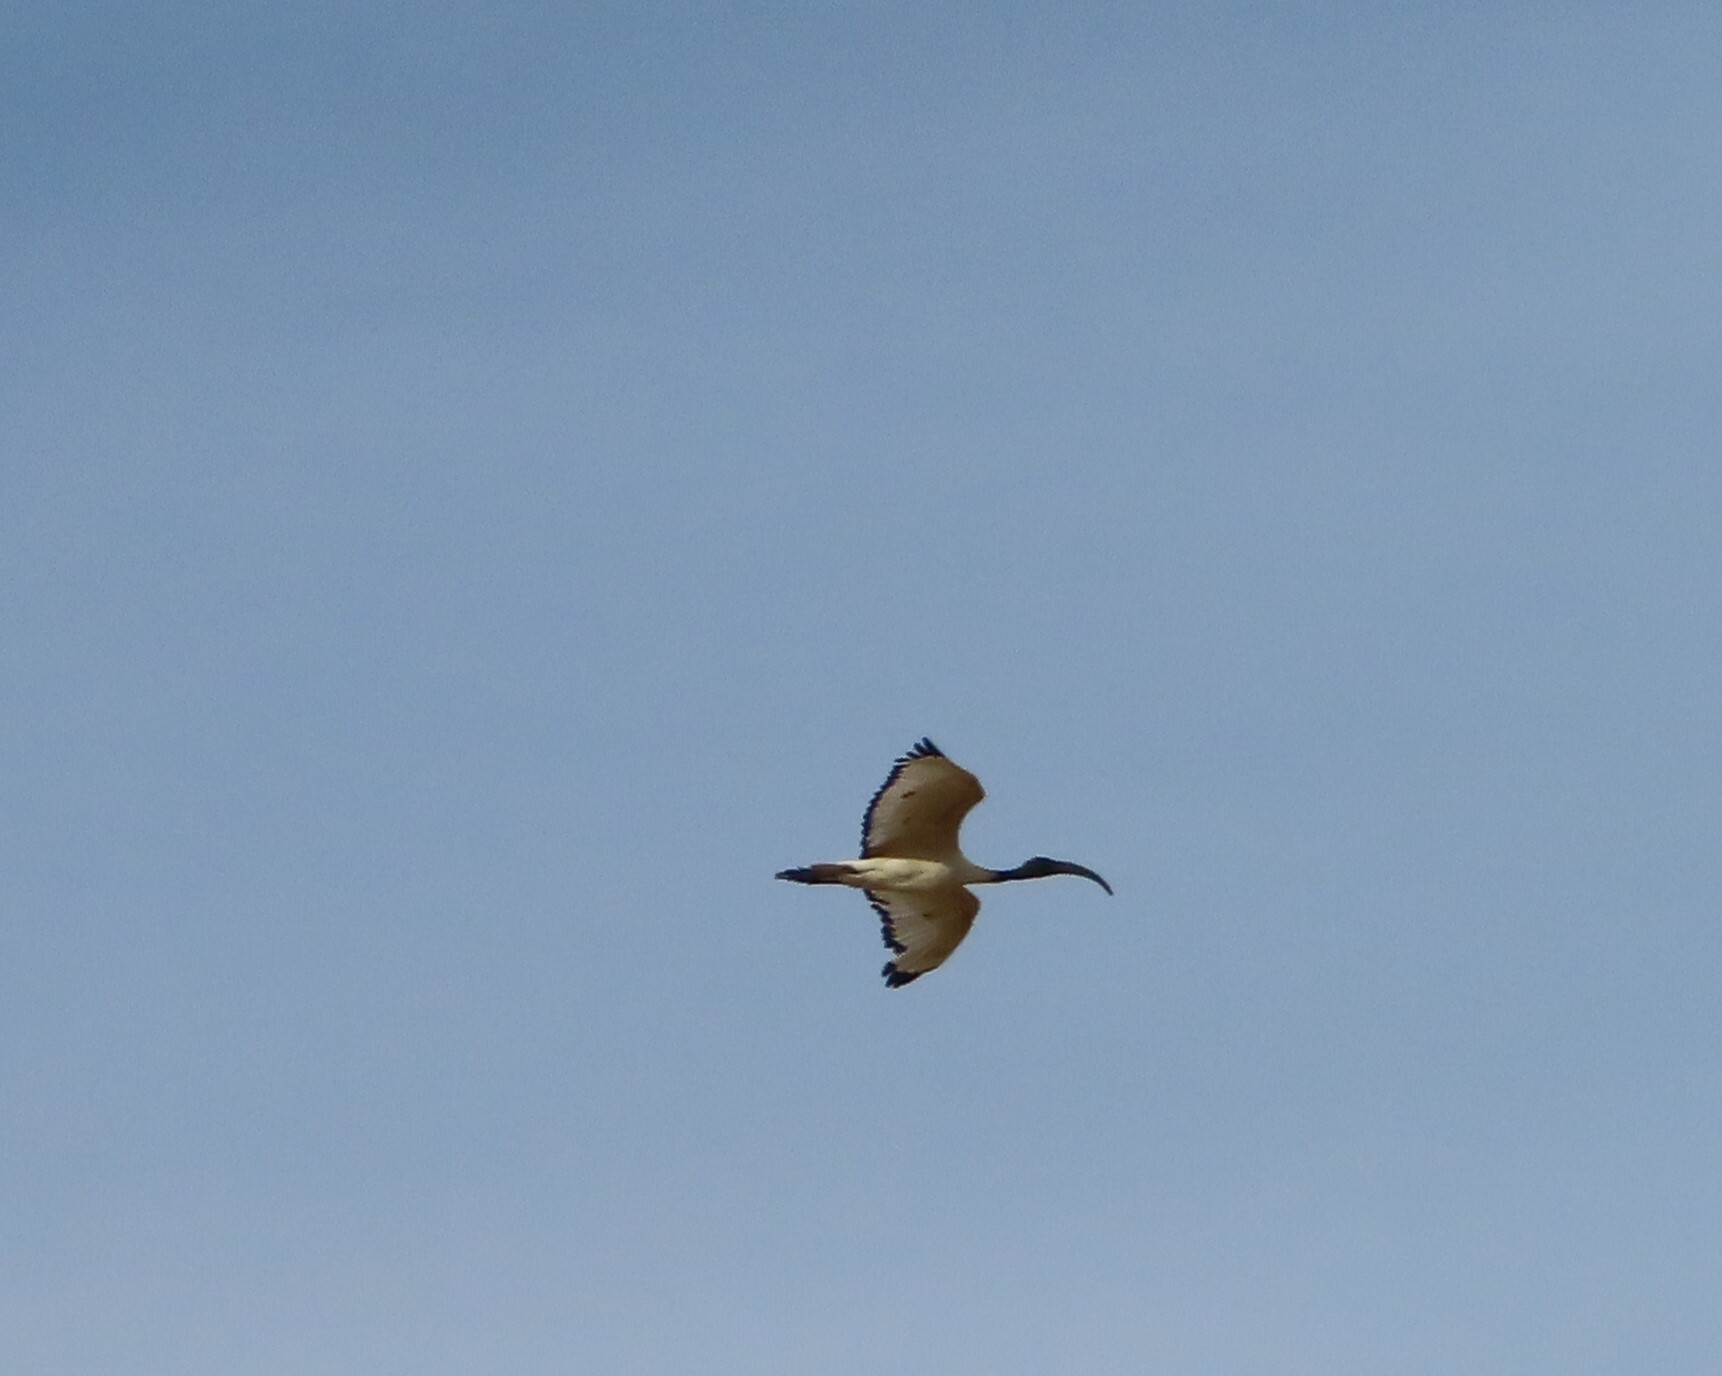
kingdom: Animalia
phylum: Chordata
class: Aves
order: Pelecaniformes
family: Threskiornithidae
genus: Threskiornis
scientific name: Threskiornis aethiopicus
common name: Sacred ibis
